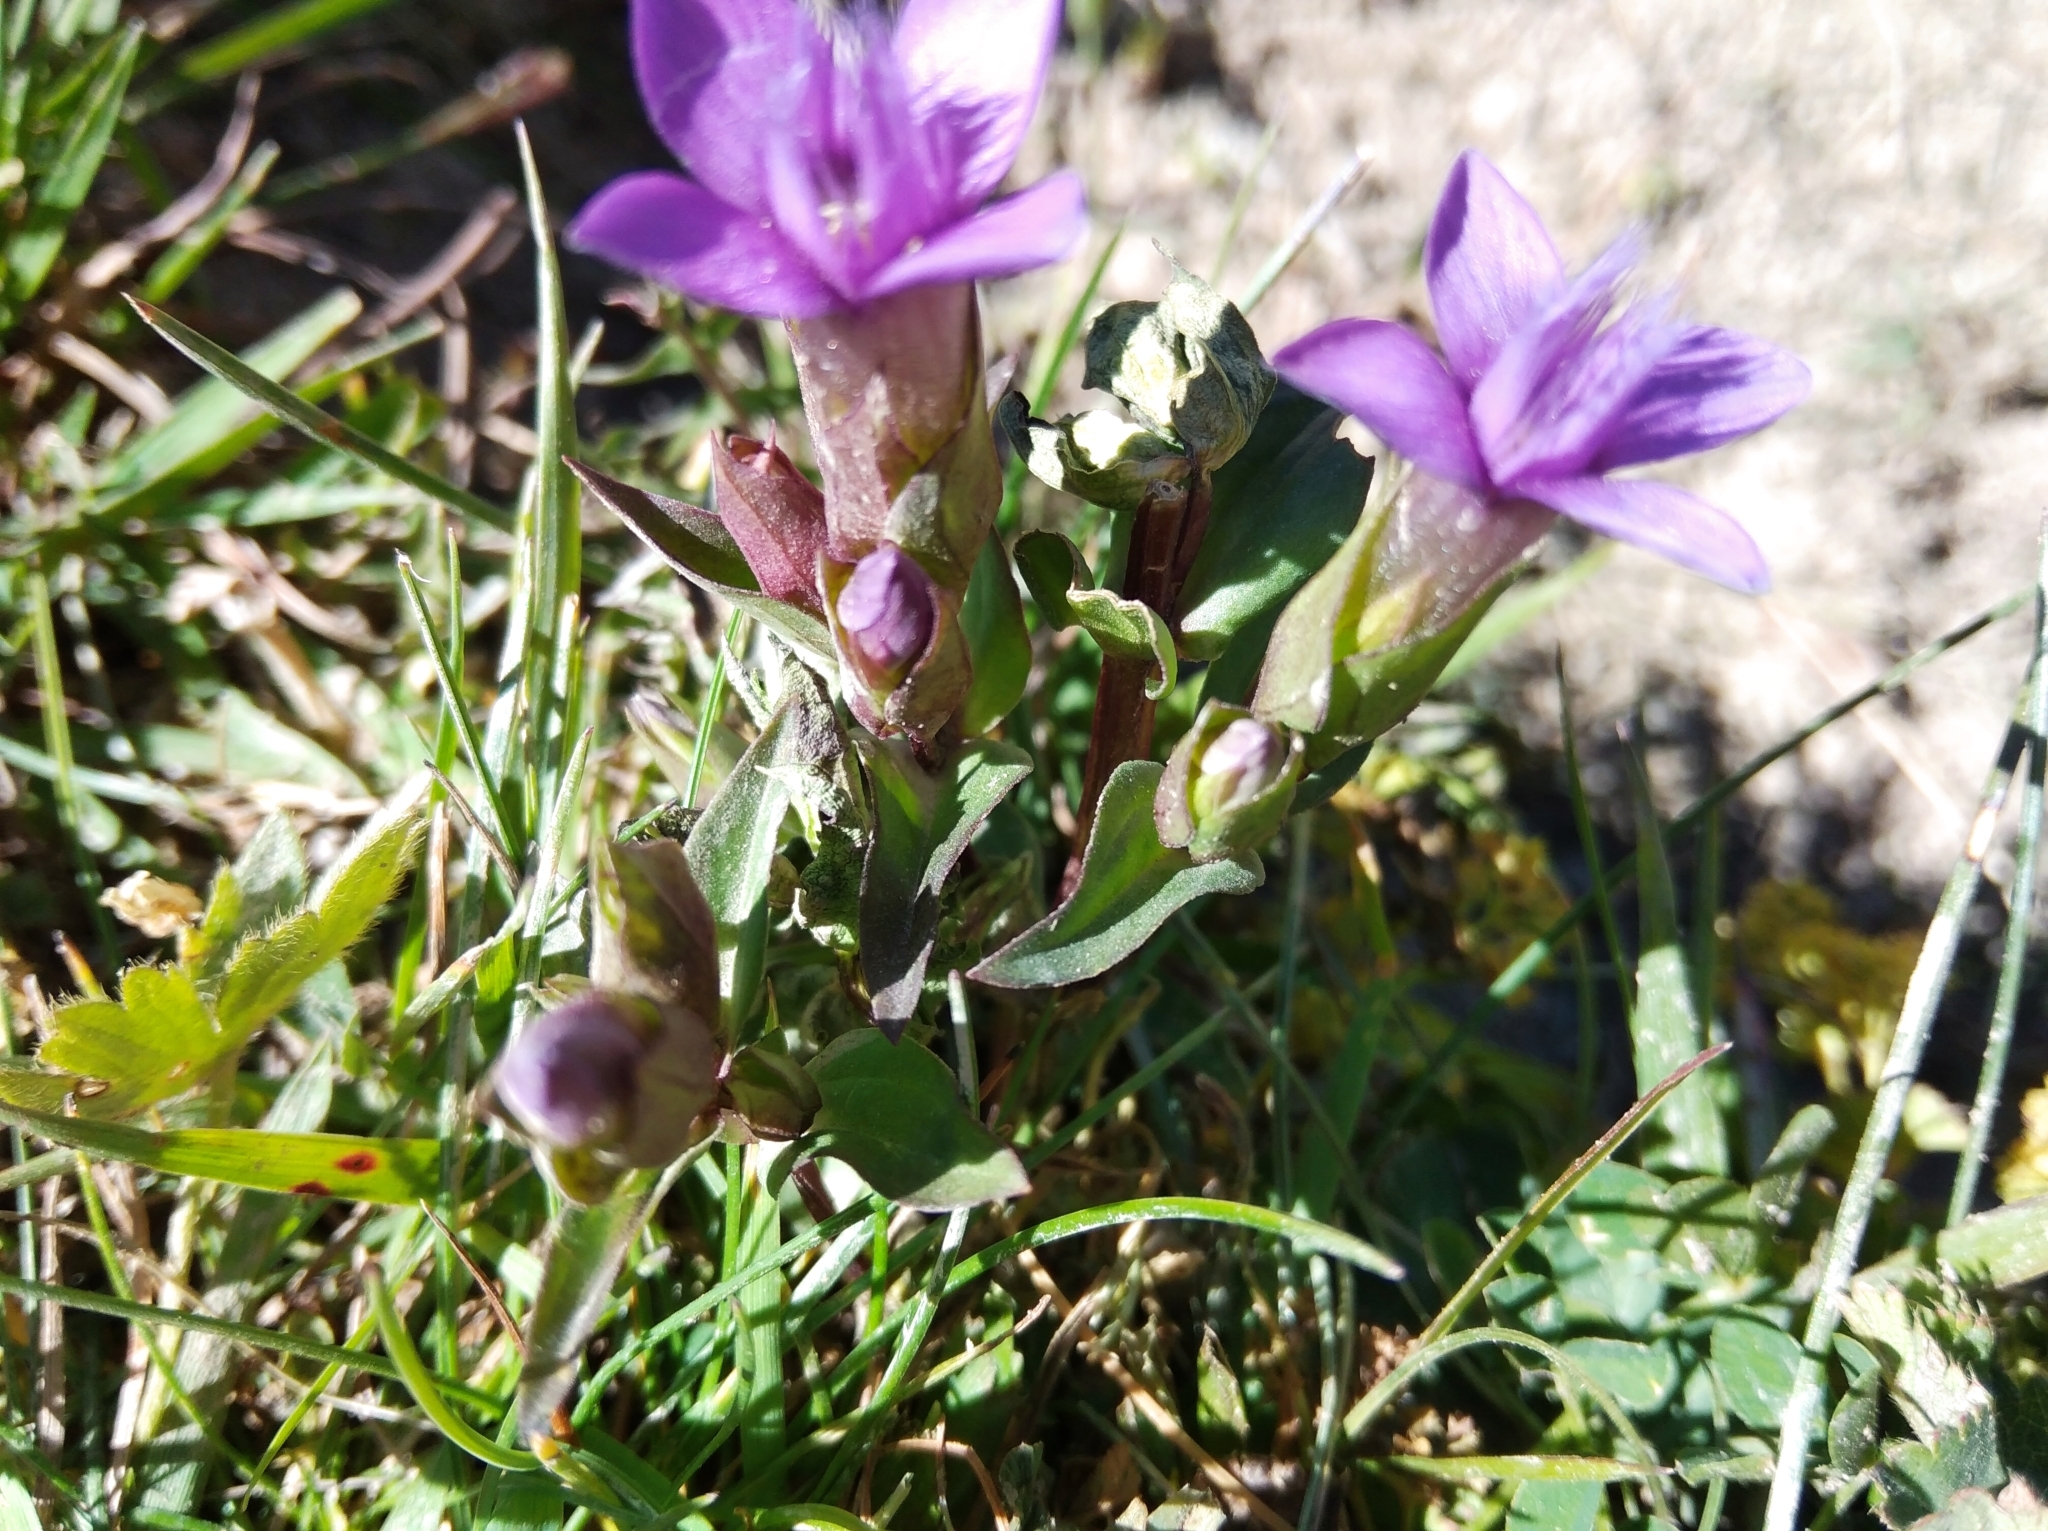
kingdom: Plantae
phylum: Tracheophyta
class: Magnoliopsida
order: Gentianales
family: Gentianaceae
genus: Gentianella
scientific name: Gentianella campestris
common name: Field gentian
